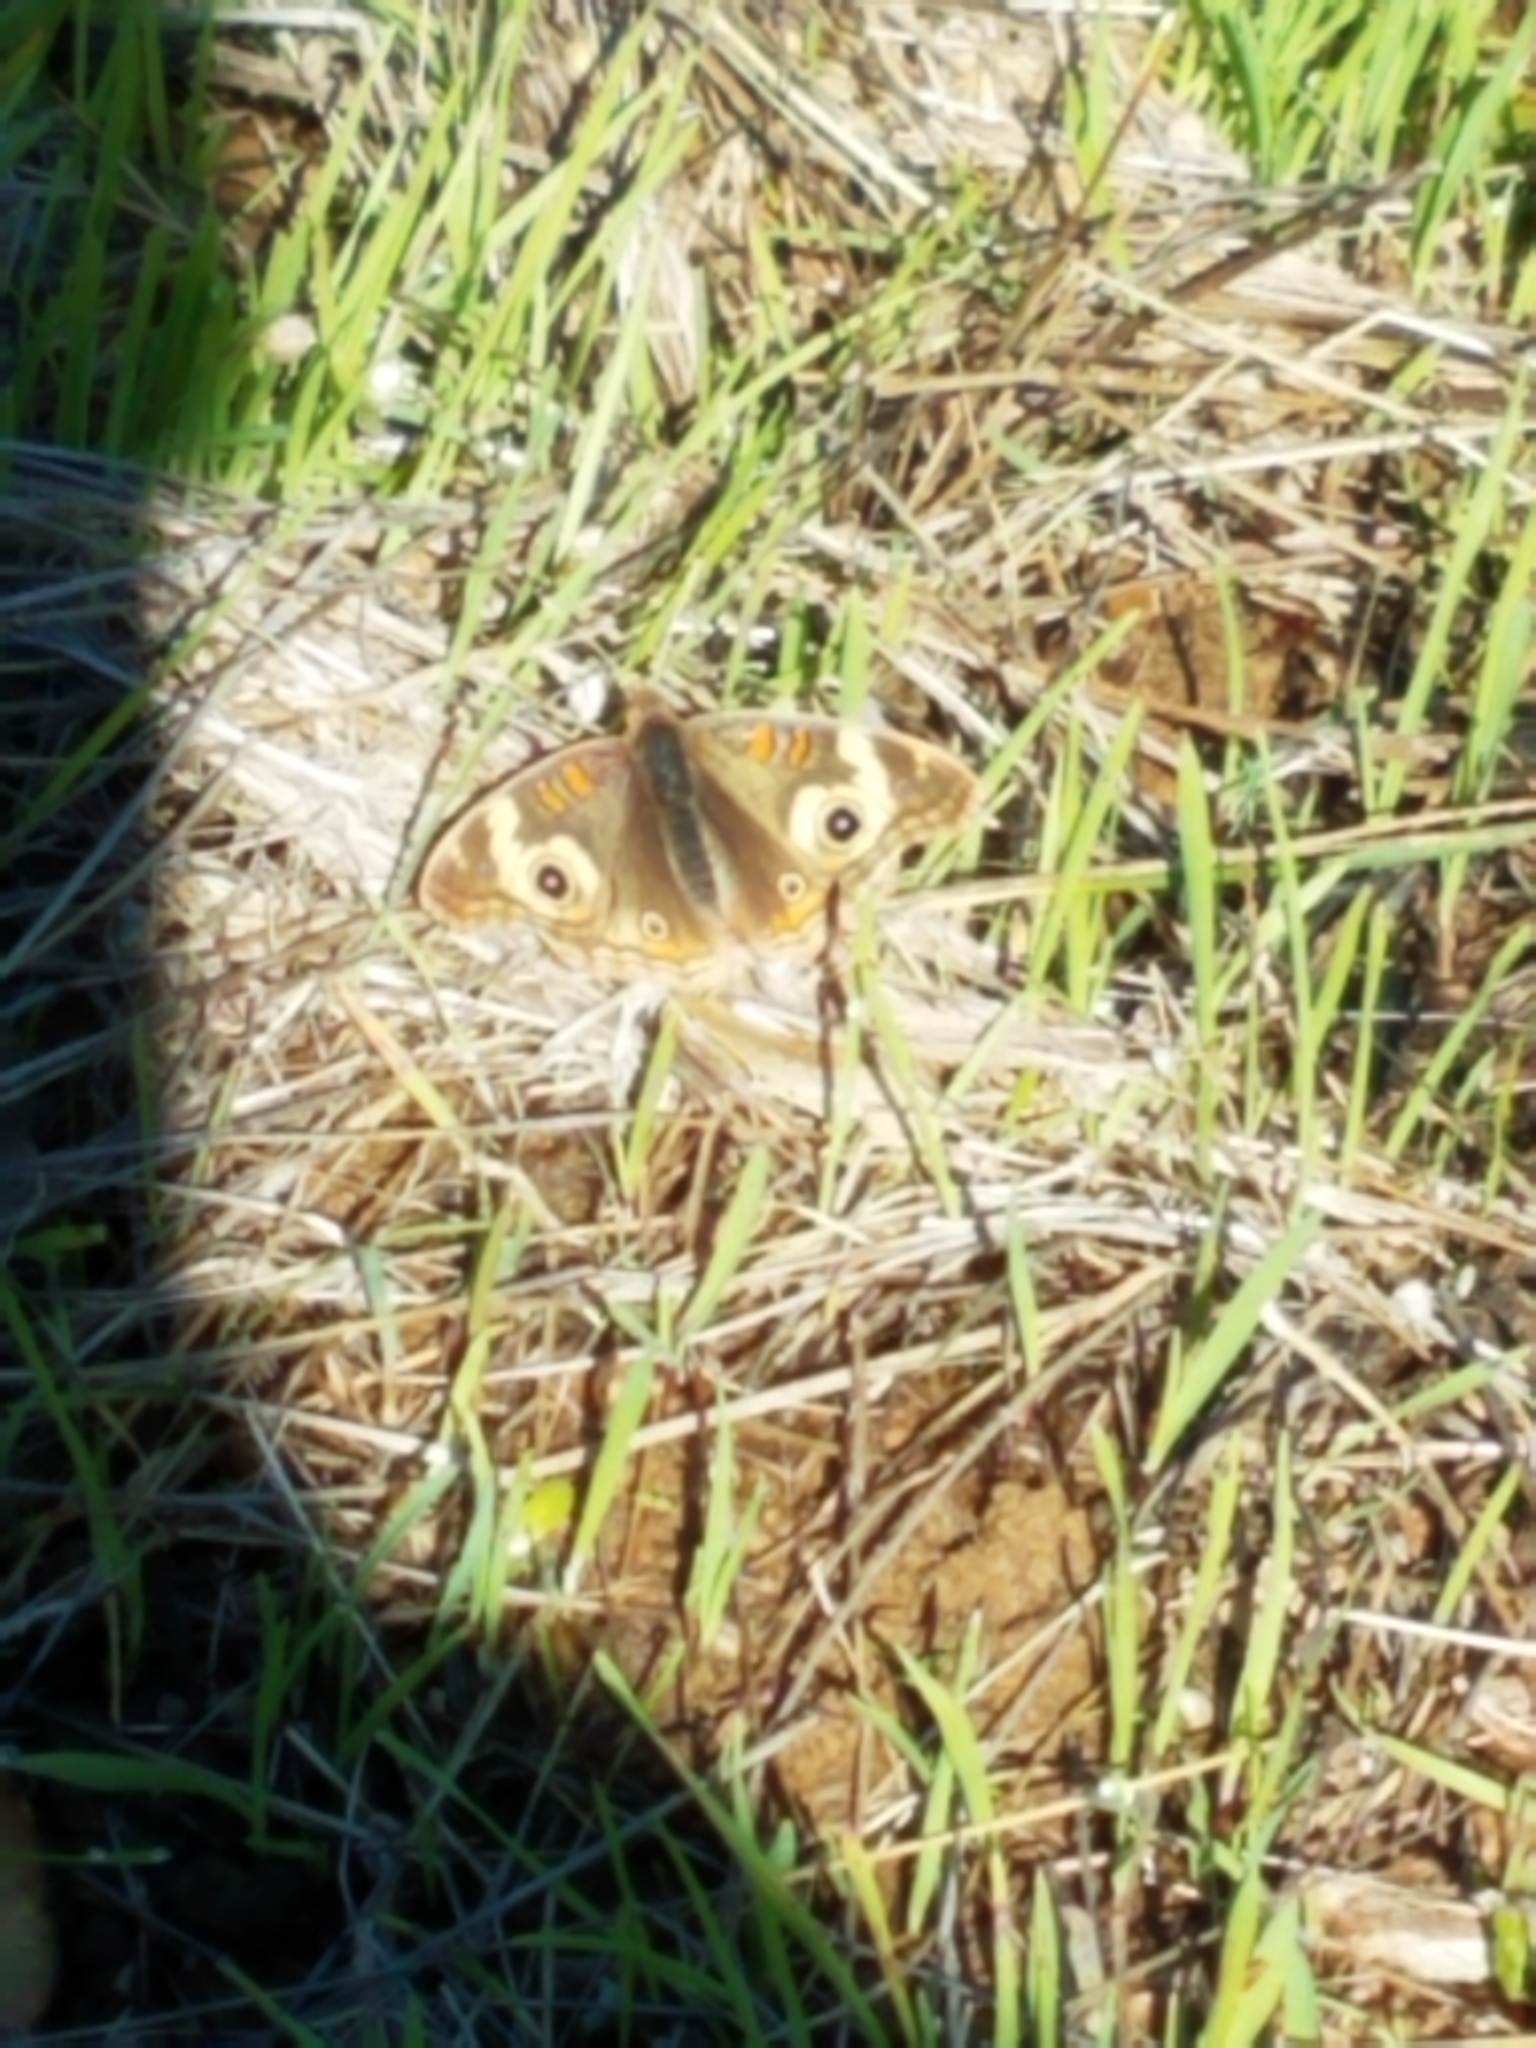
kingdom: Animalia
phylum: Arthropoda
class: Insecta
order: Lepidoptera
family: Nymphalidae
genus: Junonia
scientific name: Junonia grisea
